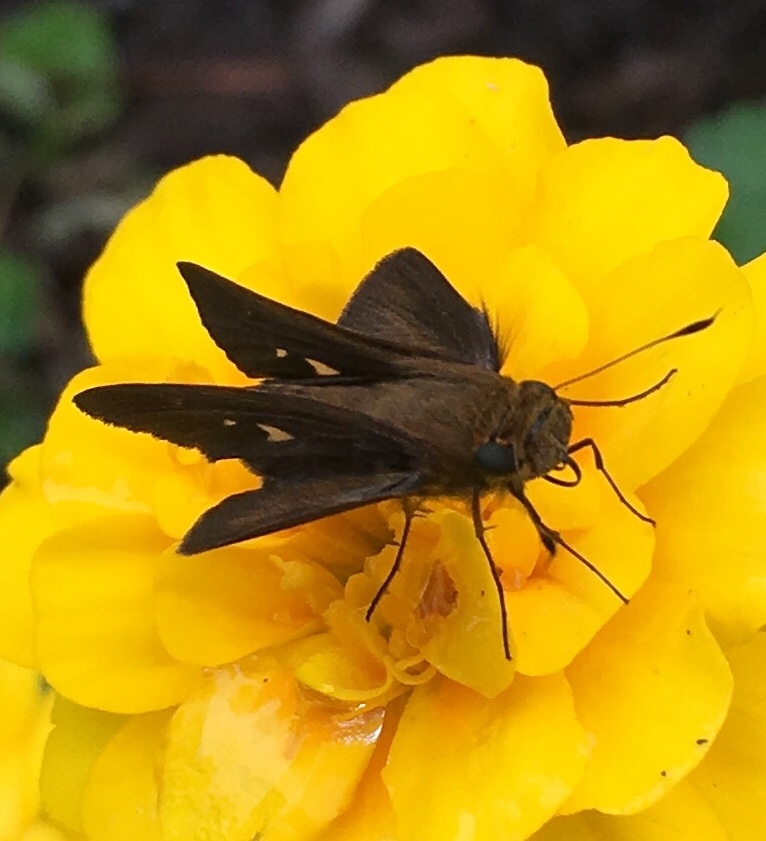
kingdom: Animalia
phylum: Arthropoda
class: Insecta
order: Lepidoptera
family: Hesperiidae
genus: Panoquina
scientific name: Panoquina ocola
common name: Ocola skipper
